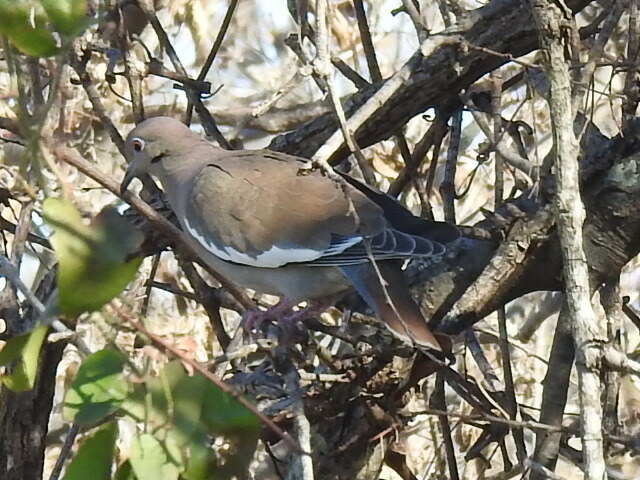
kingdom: Animalia
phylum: Chordata
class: Aves
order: Columbiformes
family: Columbidae
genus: Zenaida
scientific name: Zenaida asiatica
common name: White-winged dove
